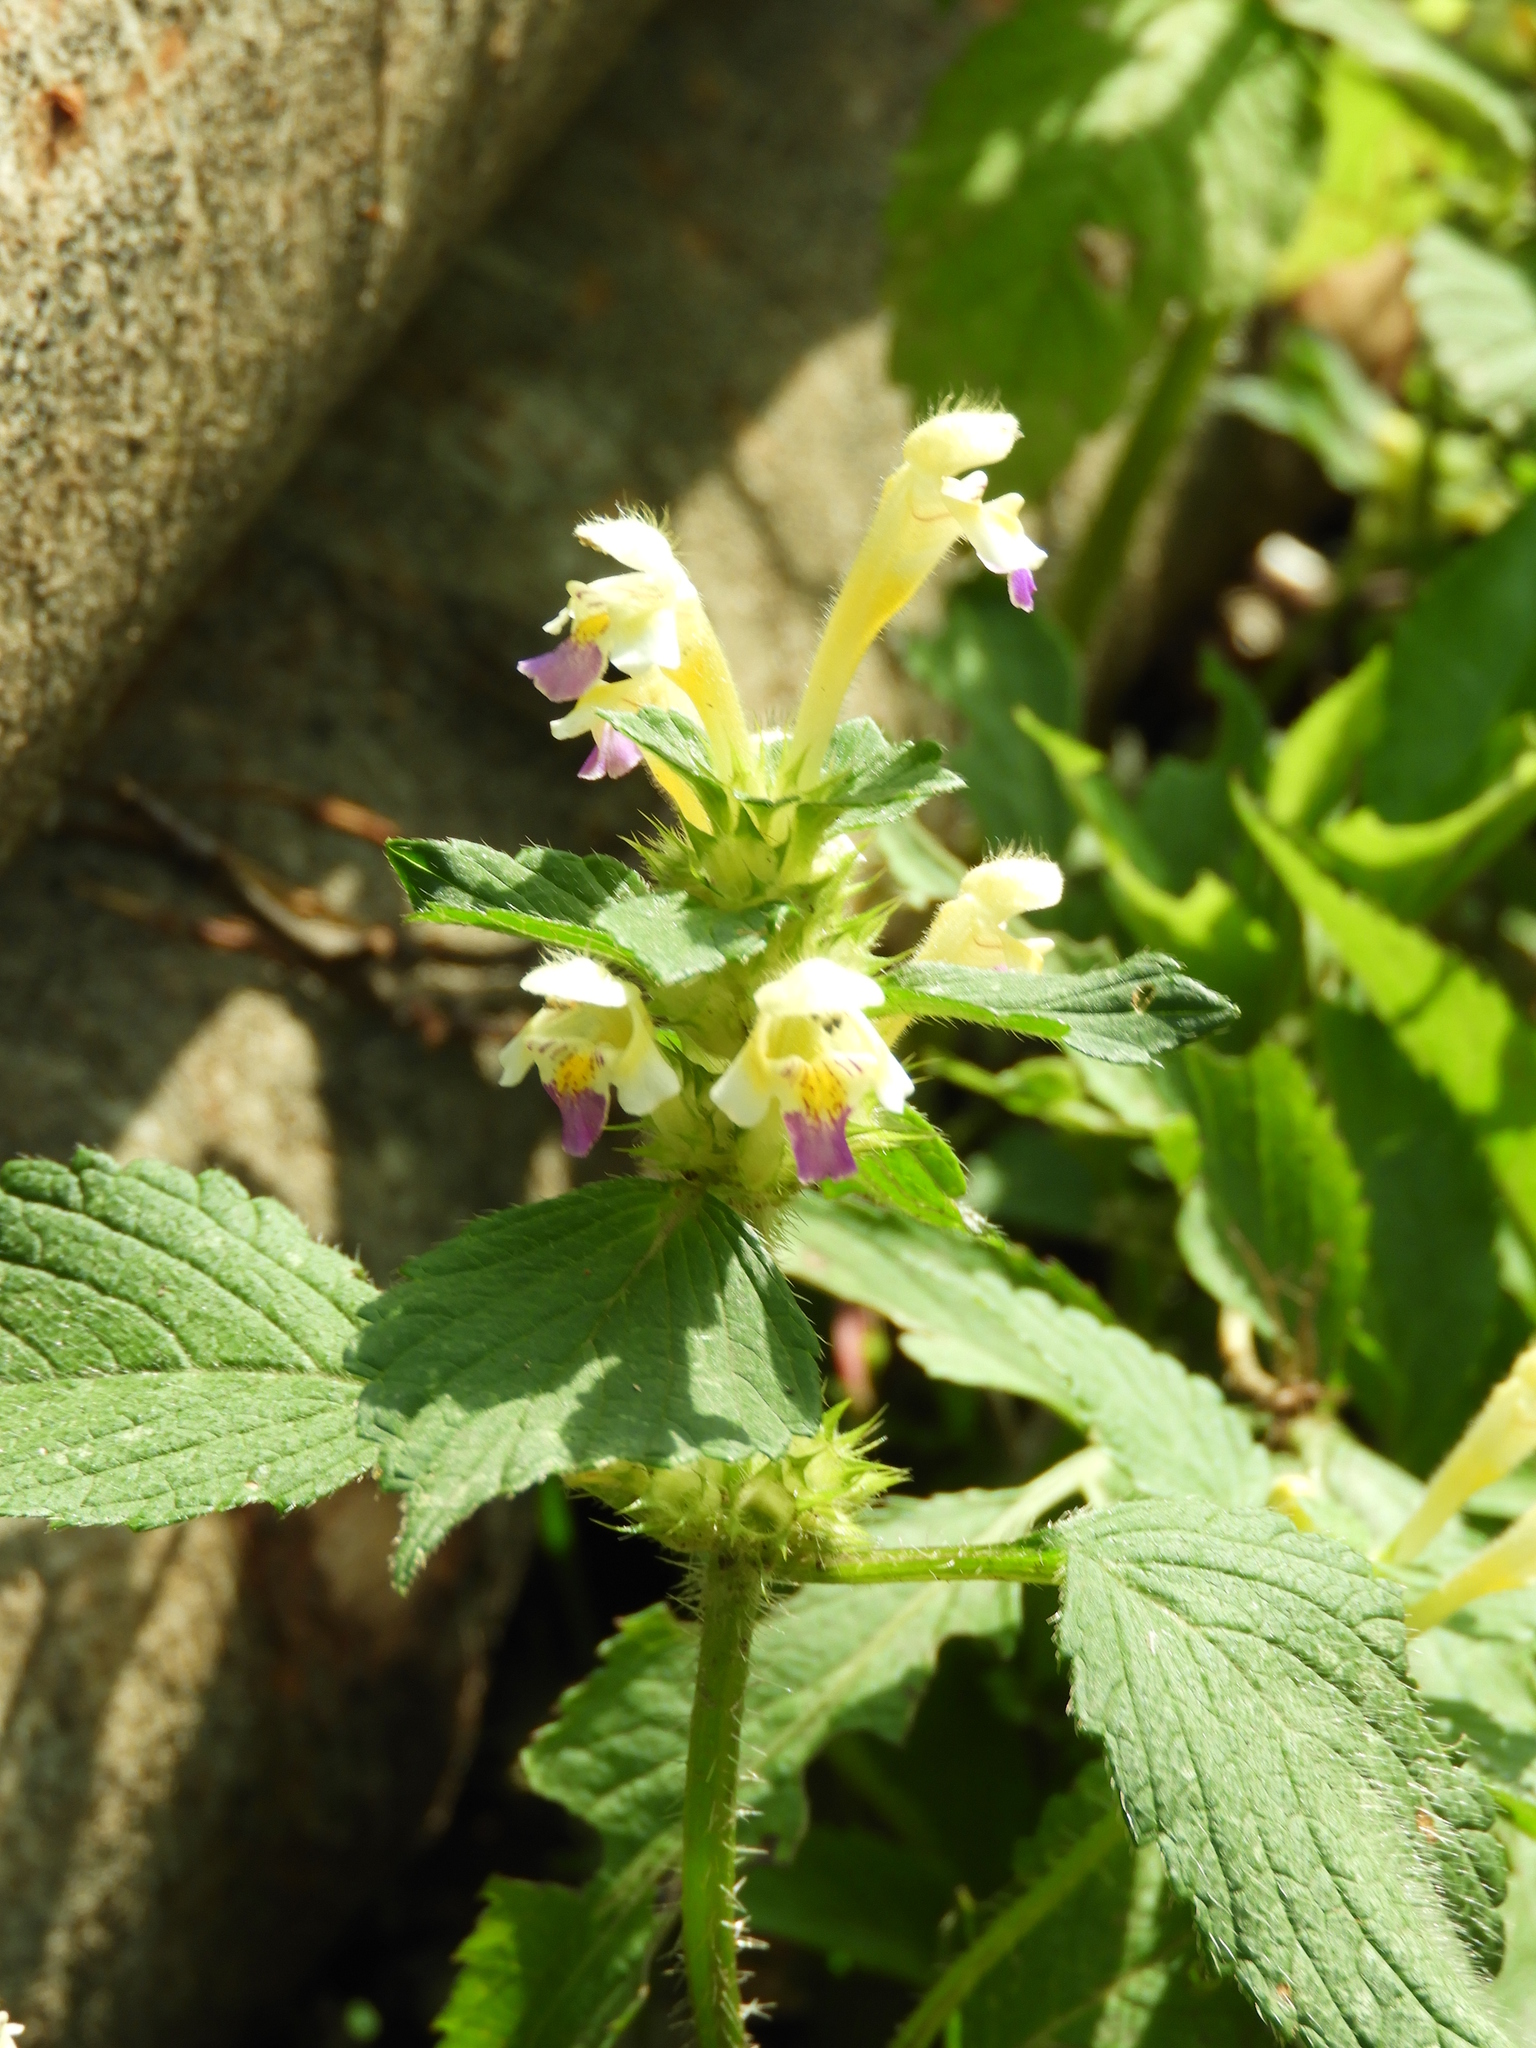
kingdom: Plantae
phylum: Tracheophyta
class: Magnoliopsida
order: Lamiales
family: Lamiaceae
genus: Galeopsis
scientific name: Galeopsis speciosa
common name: Large-flowered hemp-nettle
